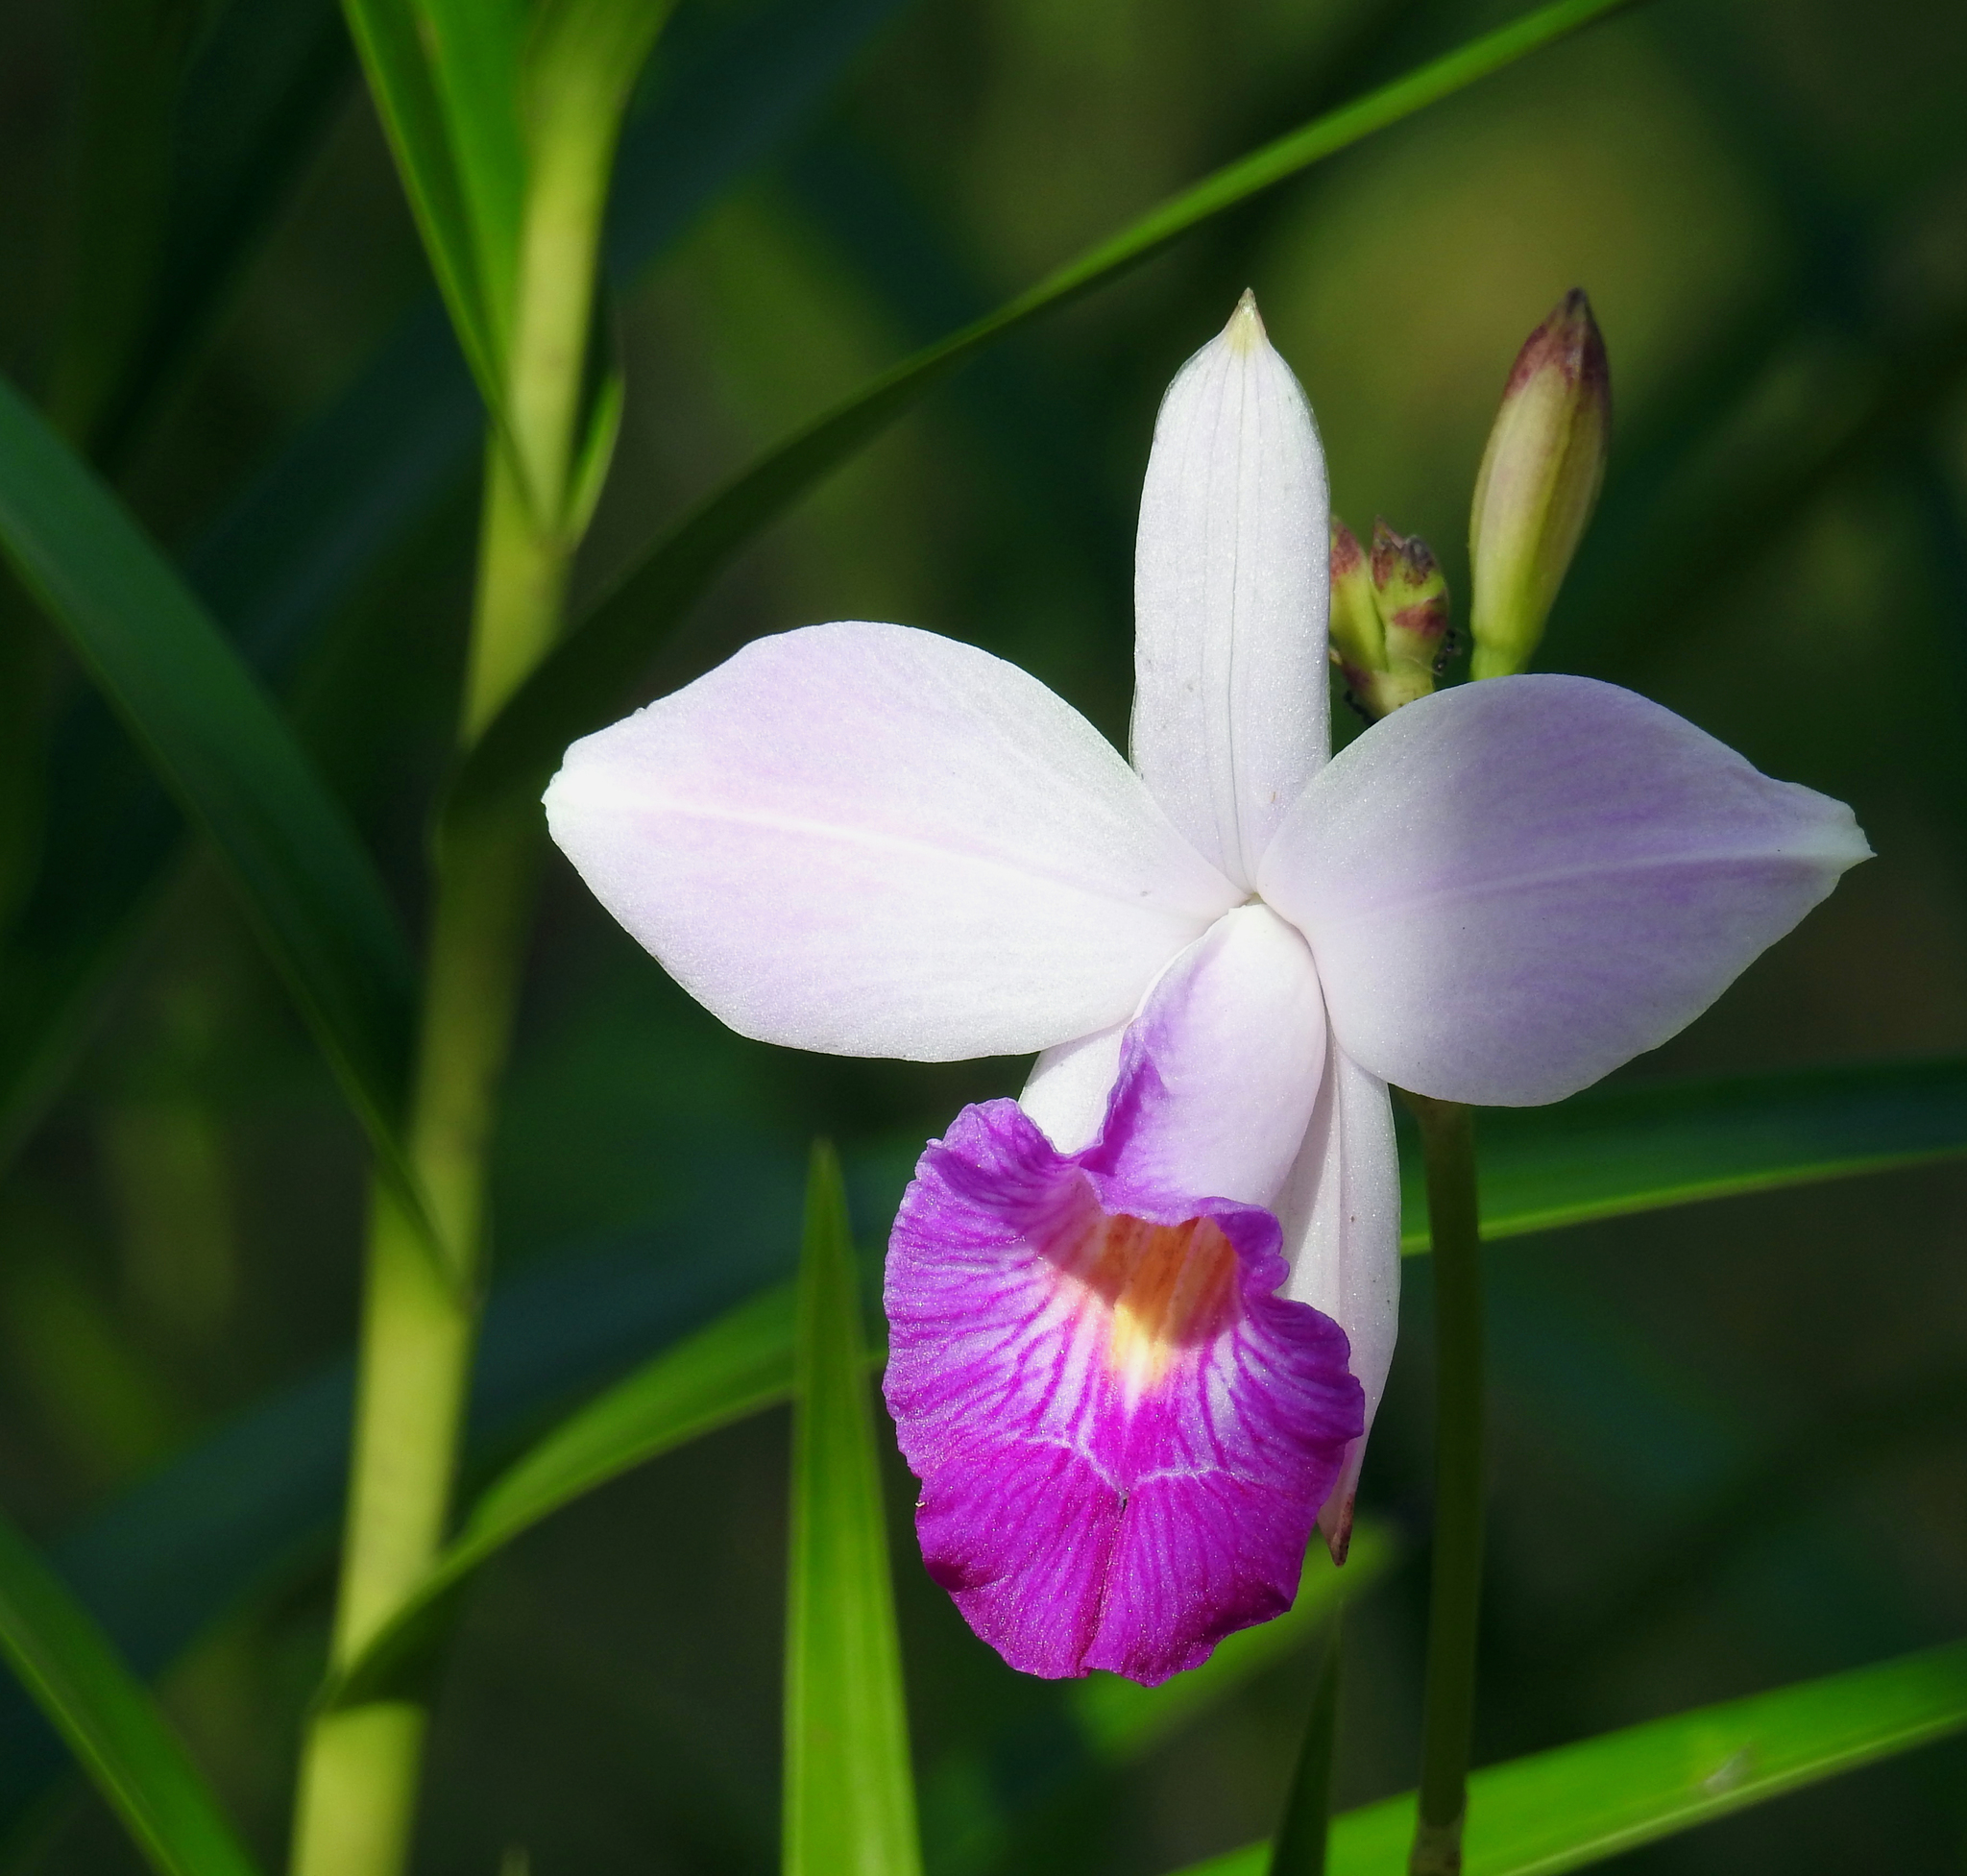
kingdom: Plantae
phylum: Tracheophyta
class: Liliopsida
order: Asparagales
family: Orchidaceae
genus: Arundina
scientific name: Arundina graminifolia
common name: Bamboo orchid
